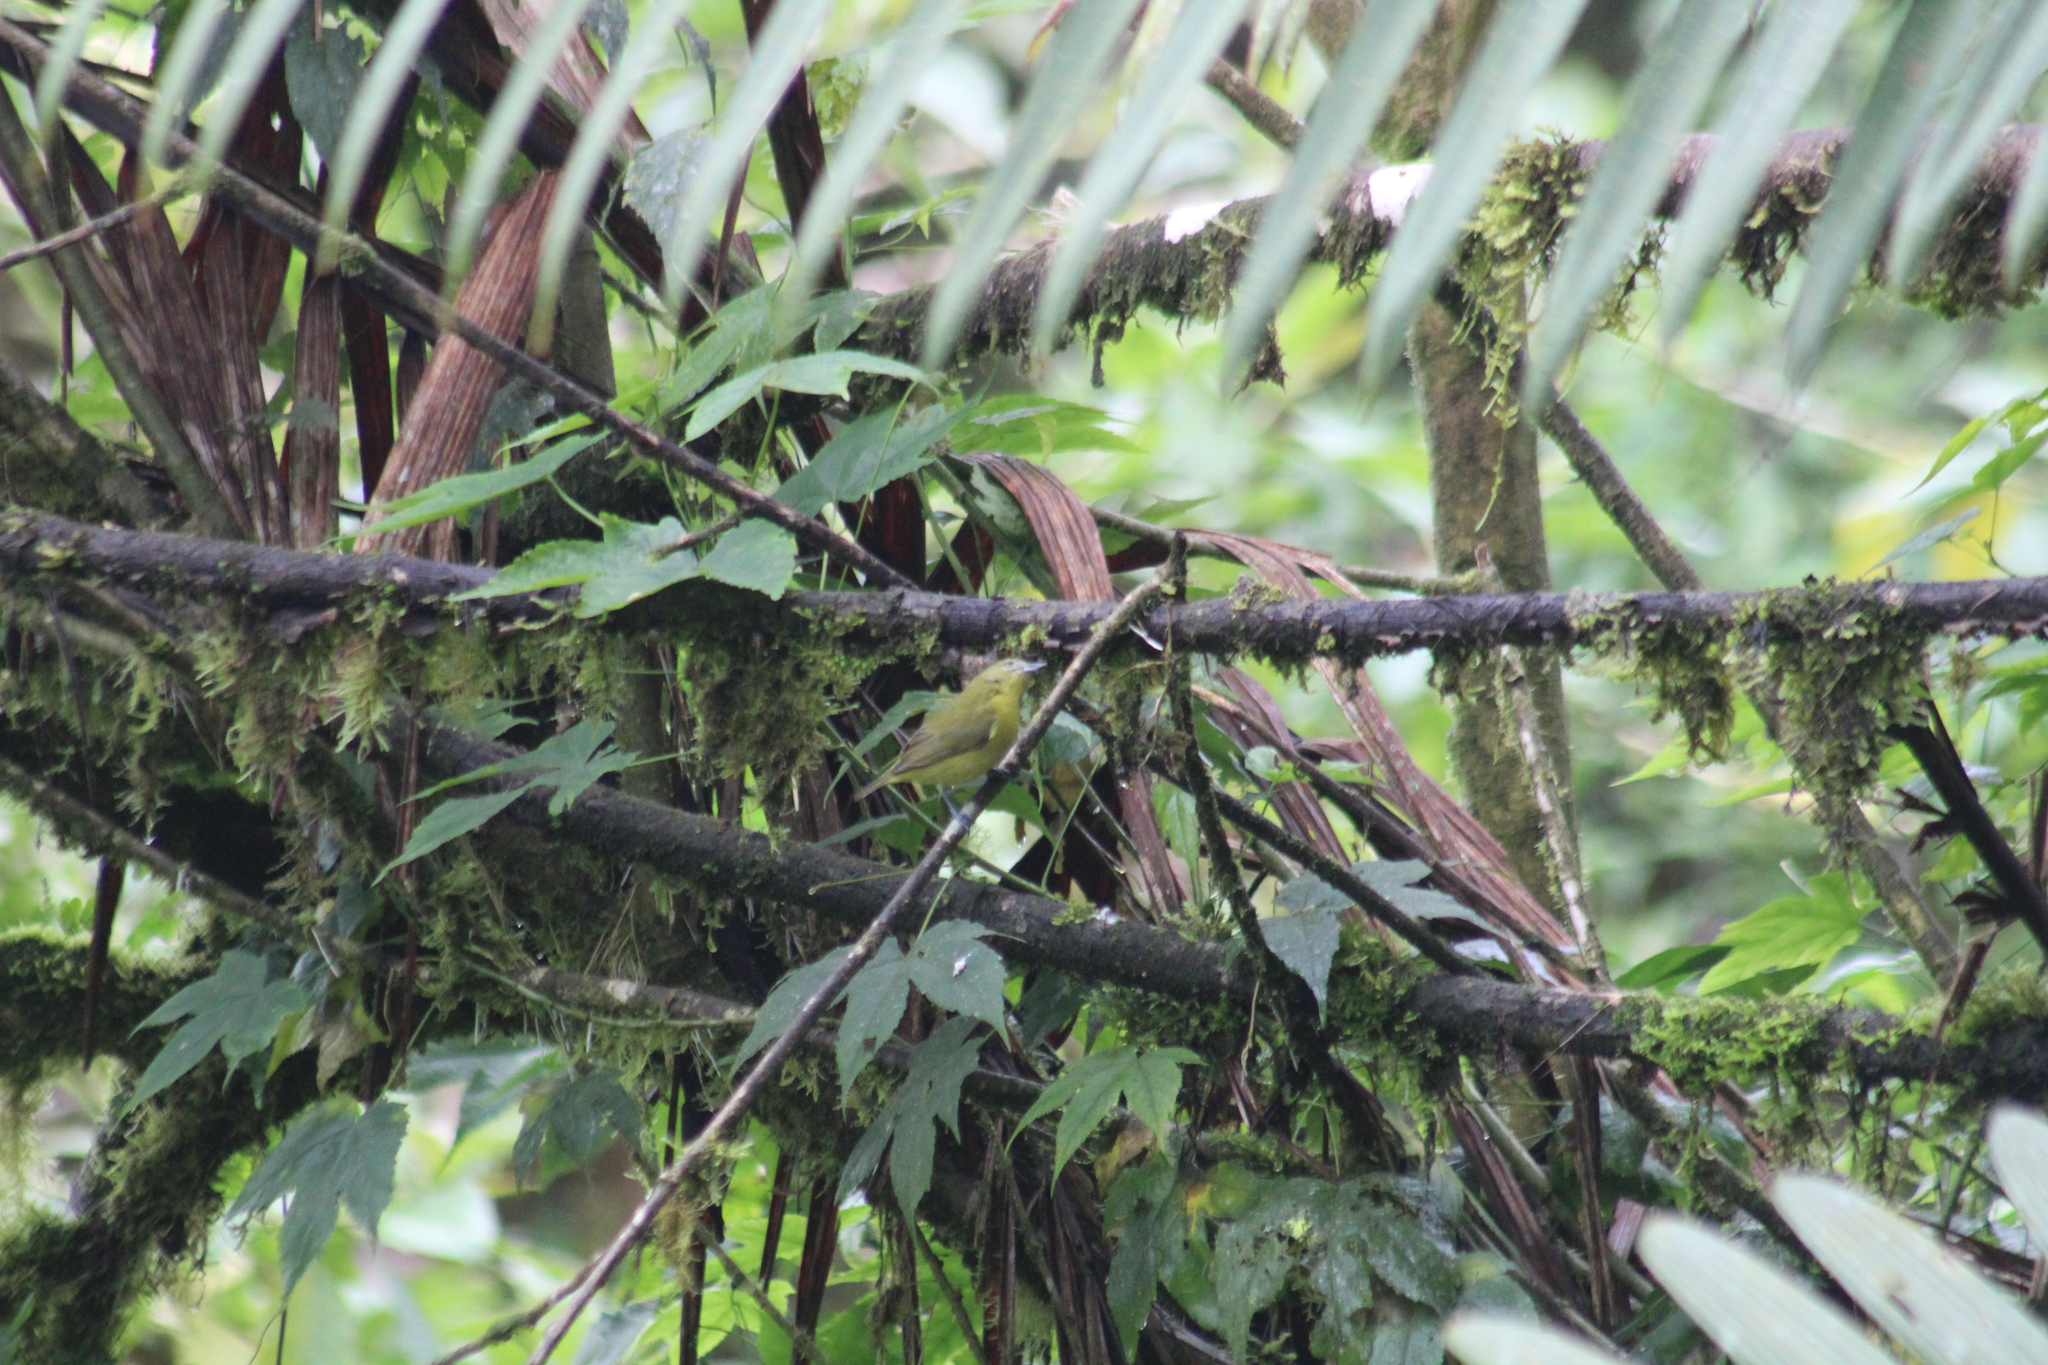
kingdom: Animalia
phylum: Chordata
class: Aves
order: Passeriformes
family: Fringillidae
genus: Euphonia
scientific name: Euphonia laniirostris
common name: Thick-billed euphonia
